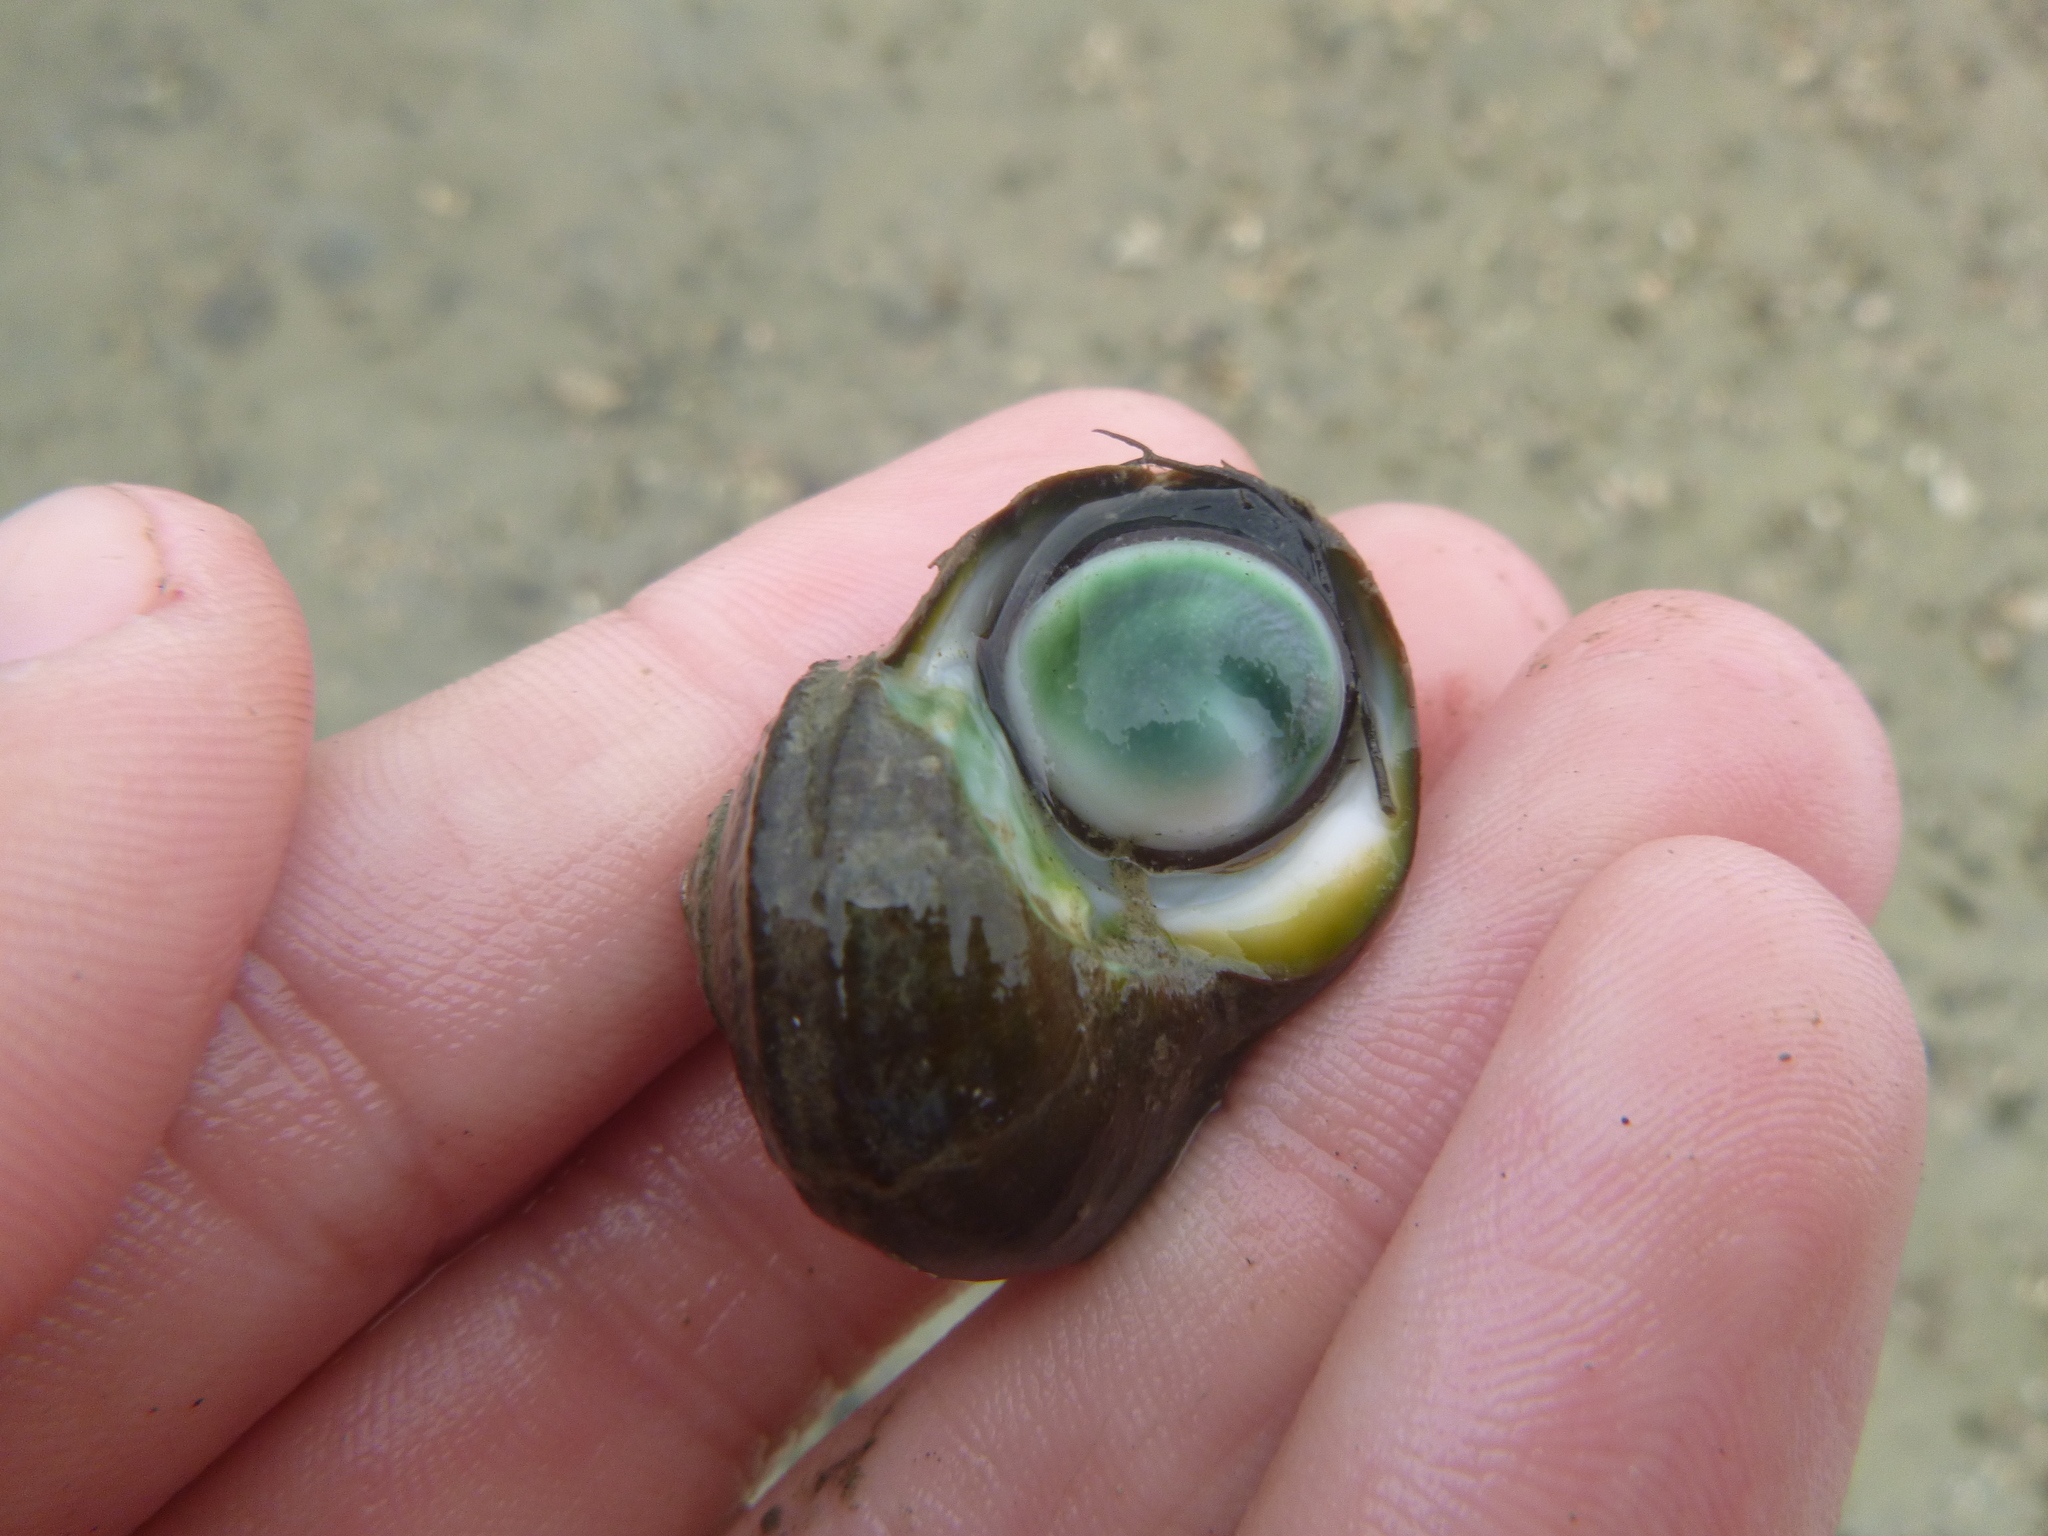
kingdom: Animalia
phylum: Mollusca
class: Gastropoda
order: Trochida
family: Turbinidae
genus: Lunella
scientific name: Lunella smaragda
